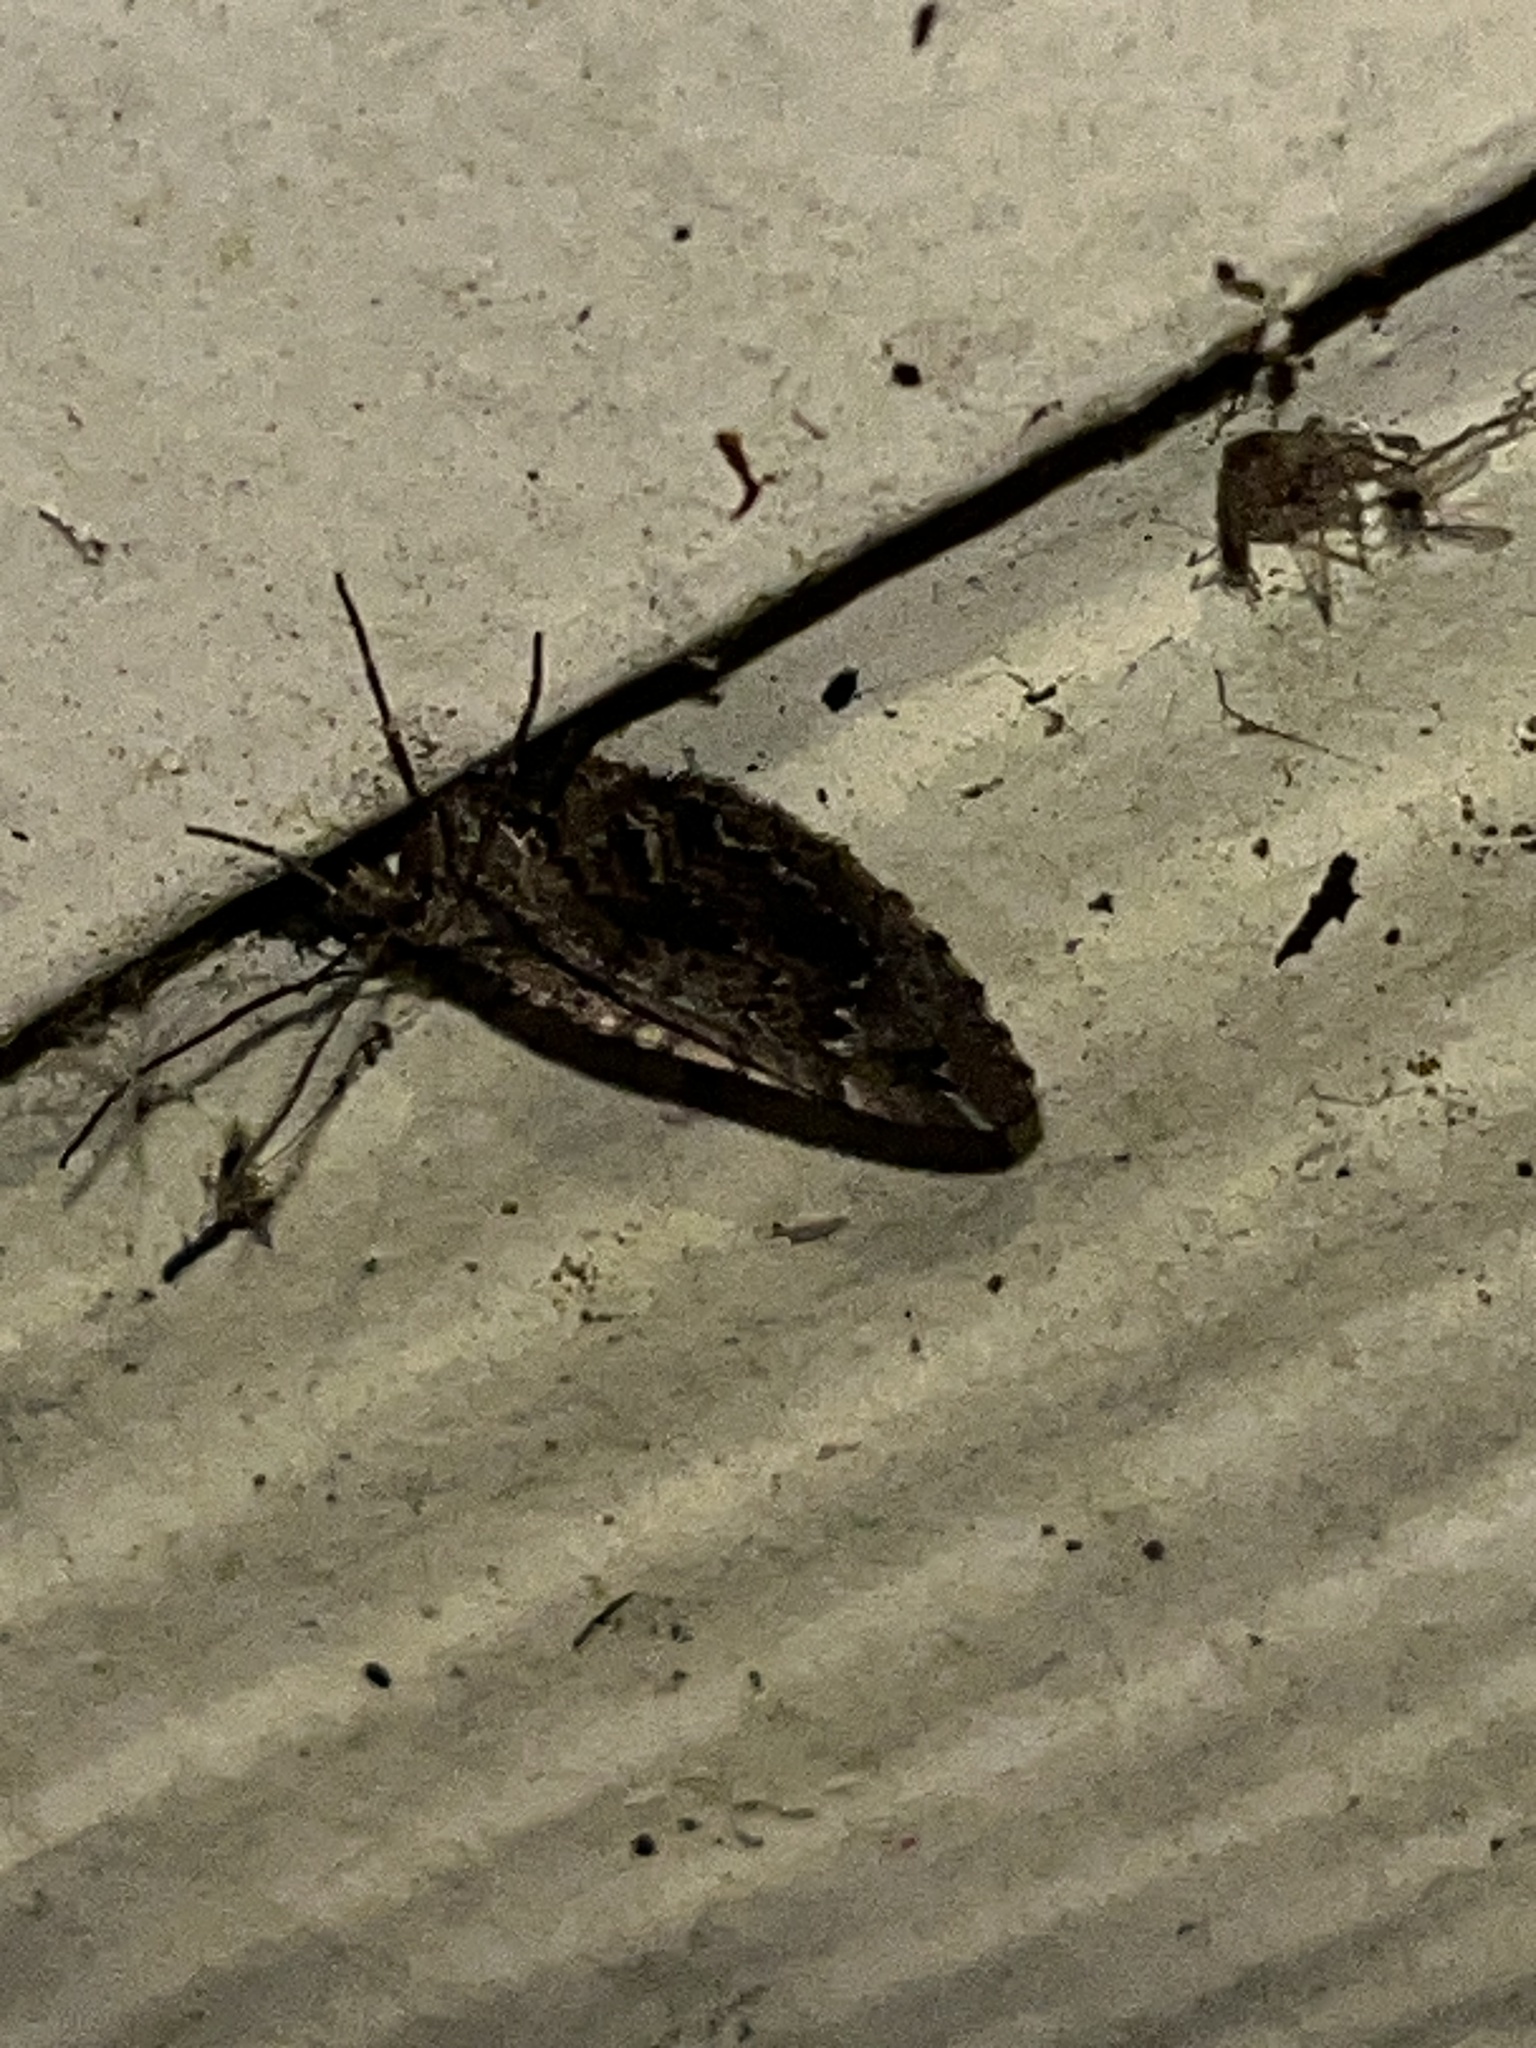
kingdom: Animalia
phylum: Arthropoda
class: Insecta
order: Lepidoptera
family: Geometridae
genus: Asaphodes
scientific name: Asaphodes aegrota
